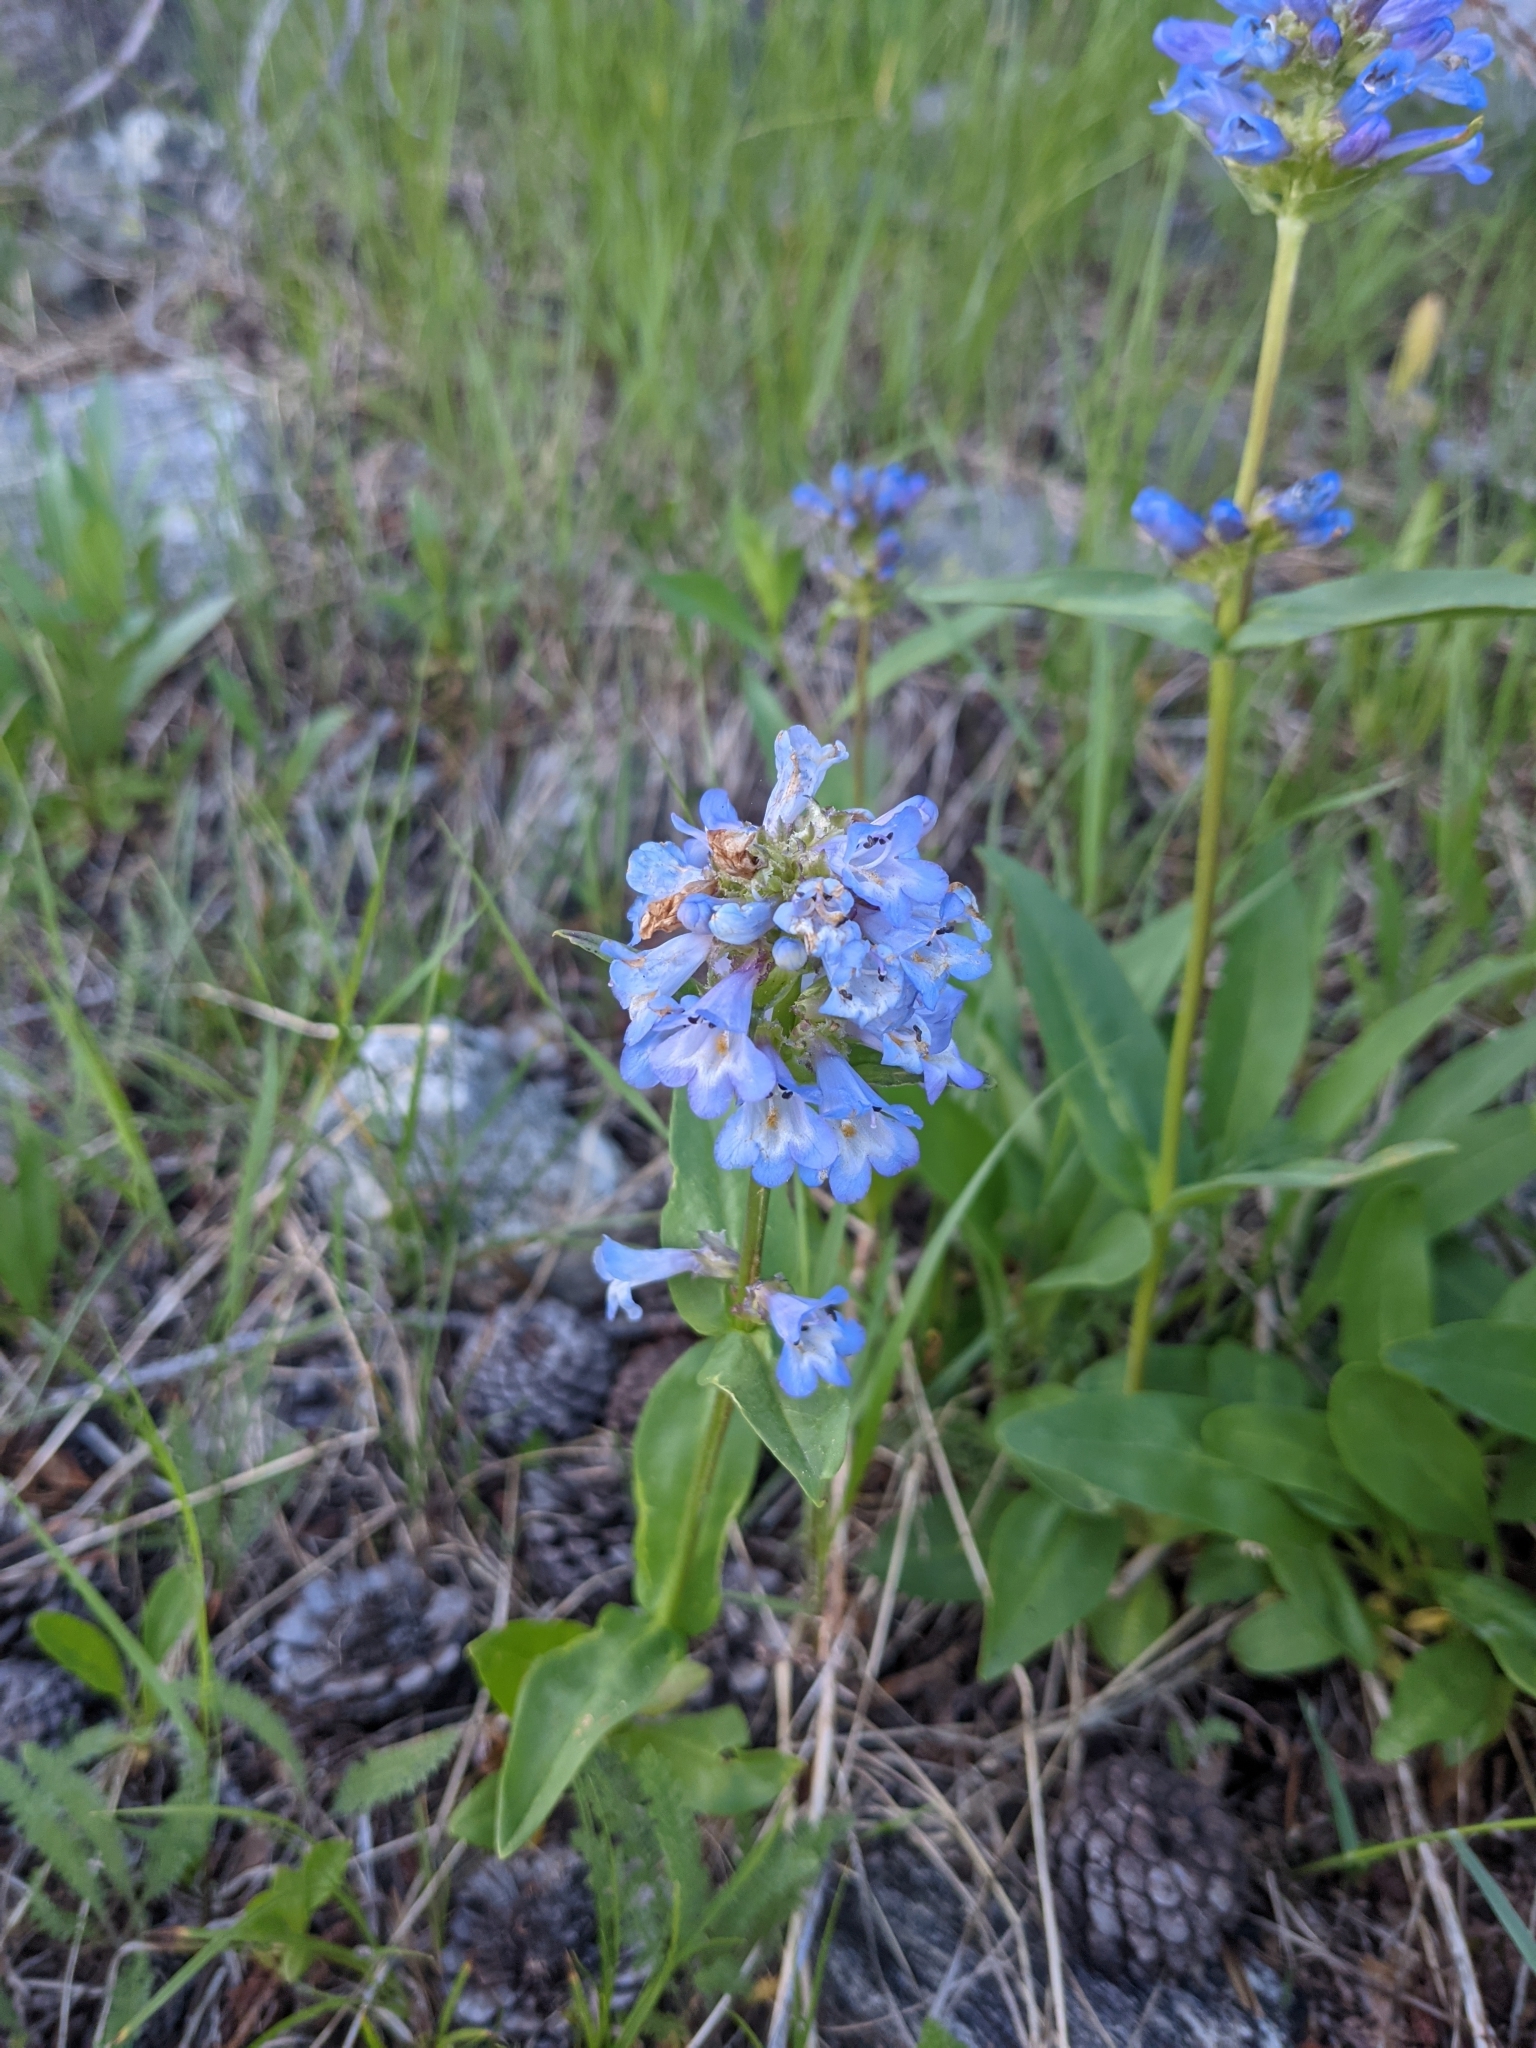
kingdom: Plantae
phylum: Tracheophyta
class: Magnoliopsida
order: Lamiales
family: Plantaginaceae
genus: Penstemon
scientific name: Penstemon rydbergii
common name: Rydberg's beardtongue
